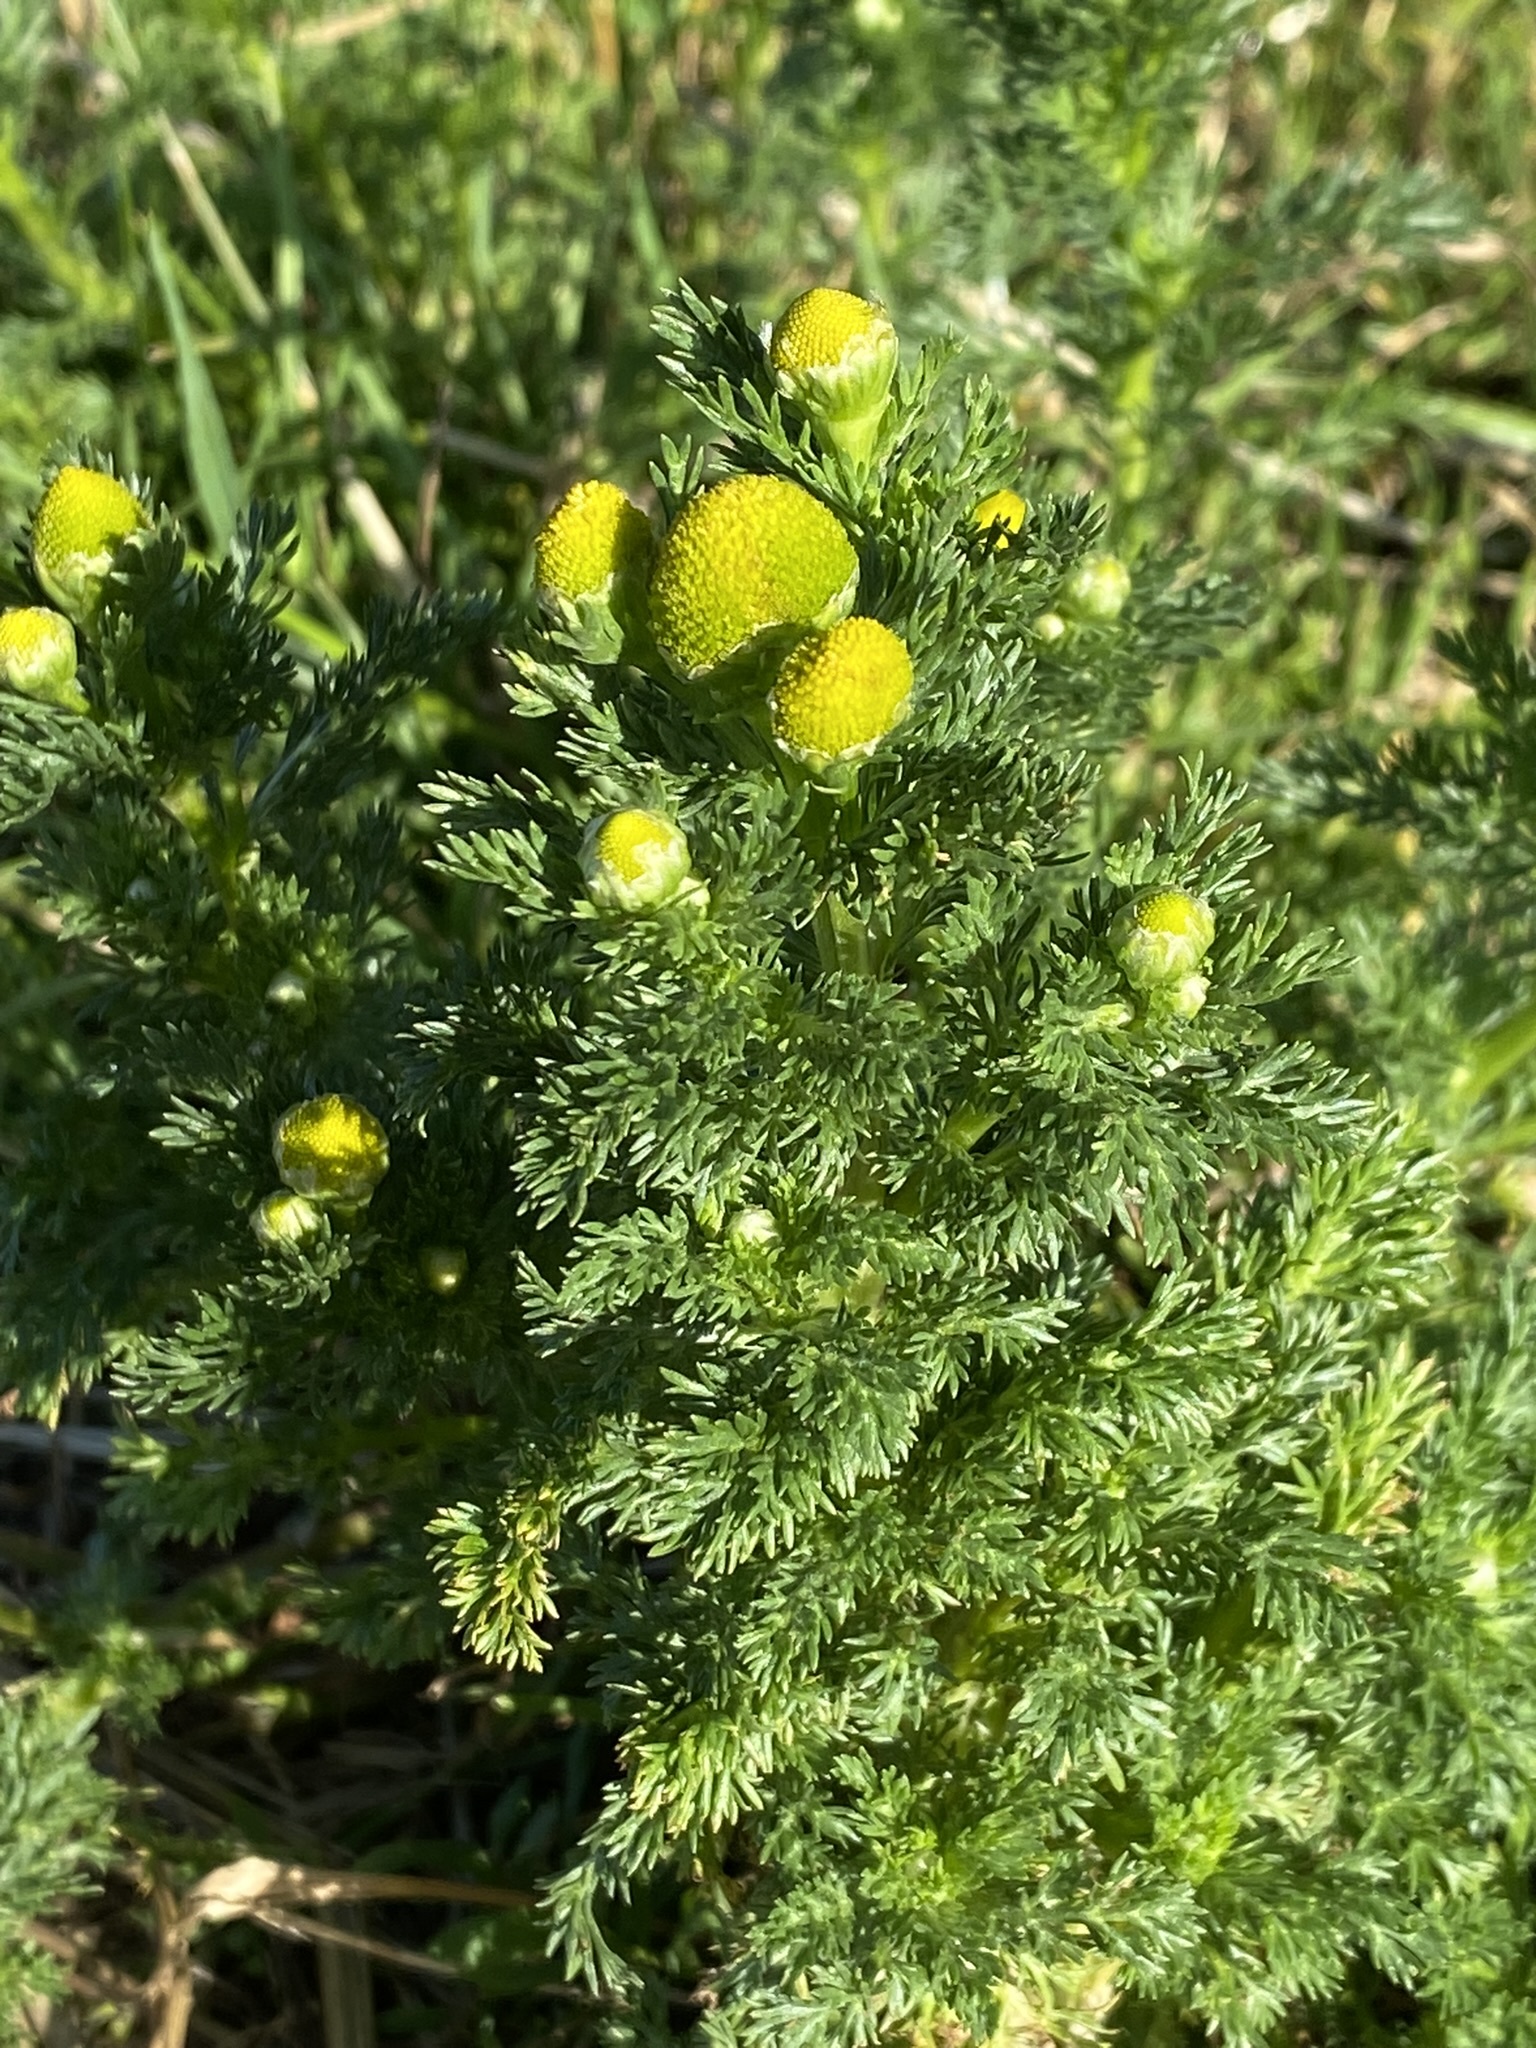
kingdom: Plantae
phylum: Tracheophyta
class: Magnoliopsida
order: Asterales
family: Asteraceae
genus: Matricaria
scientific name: Matricaria discoidea
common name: Disc mayweed
